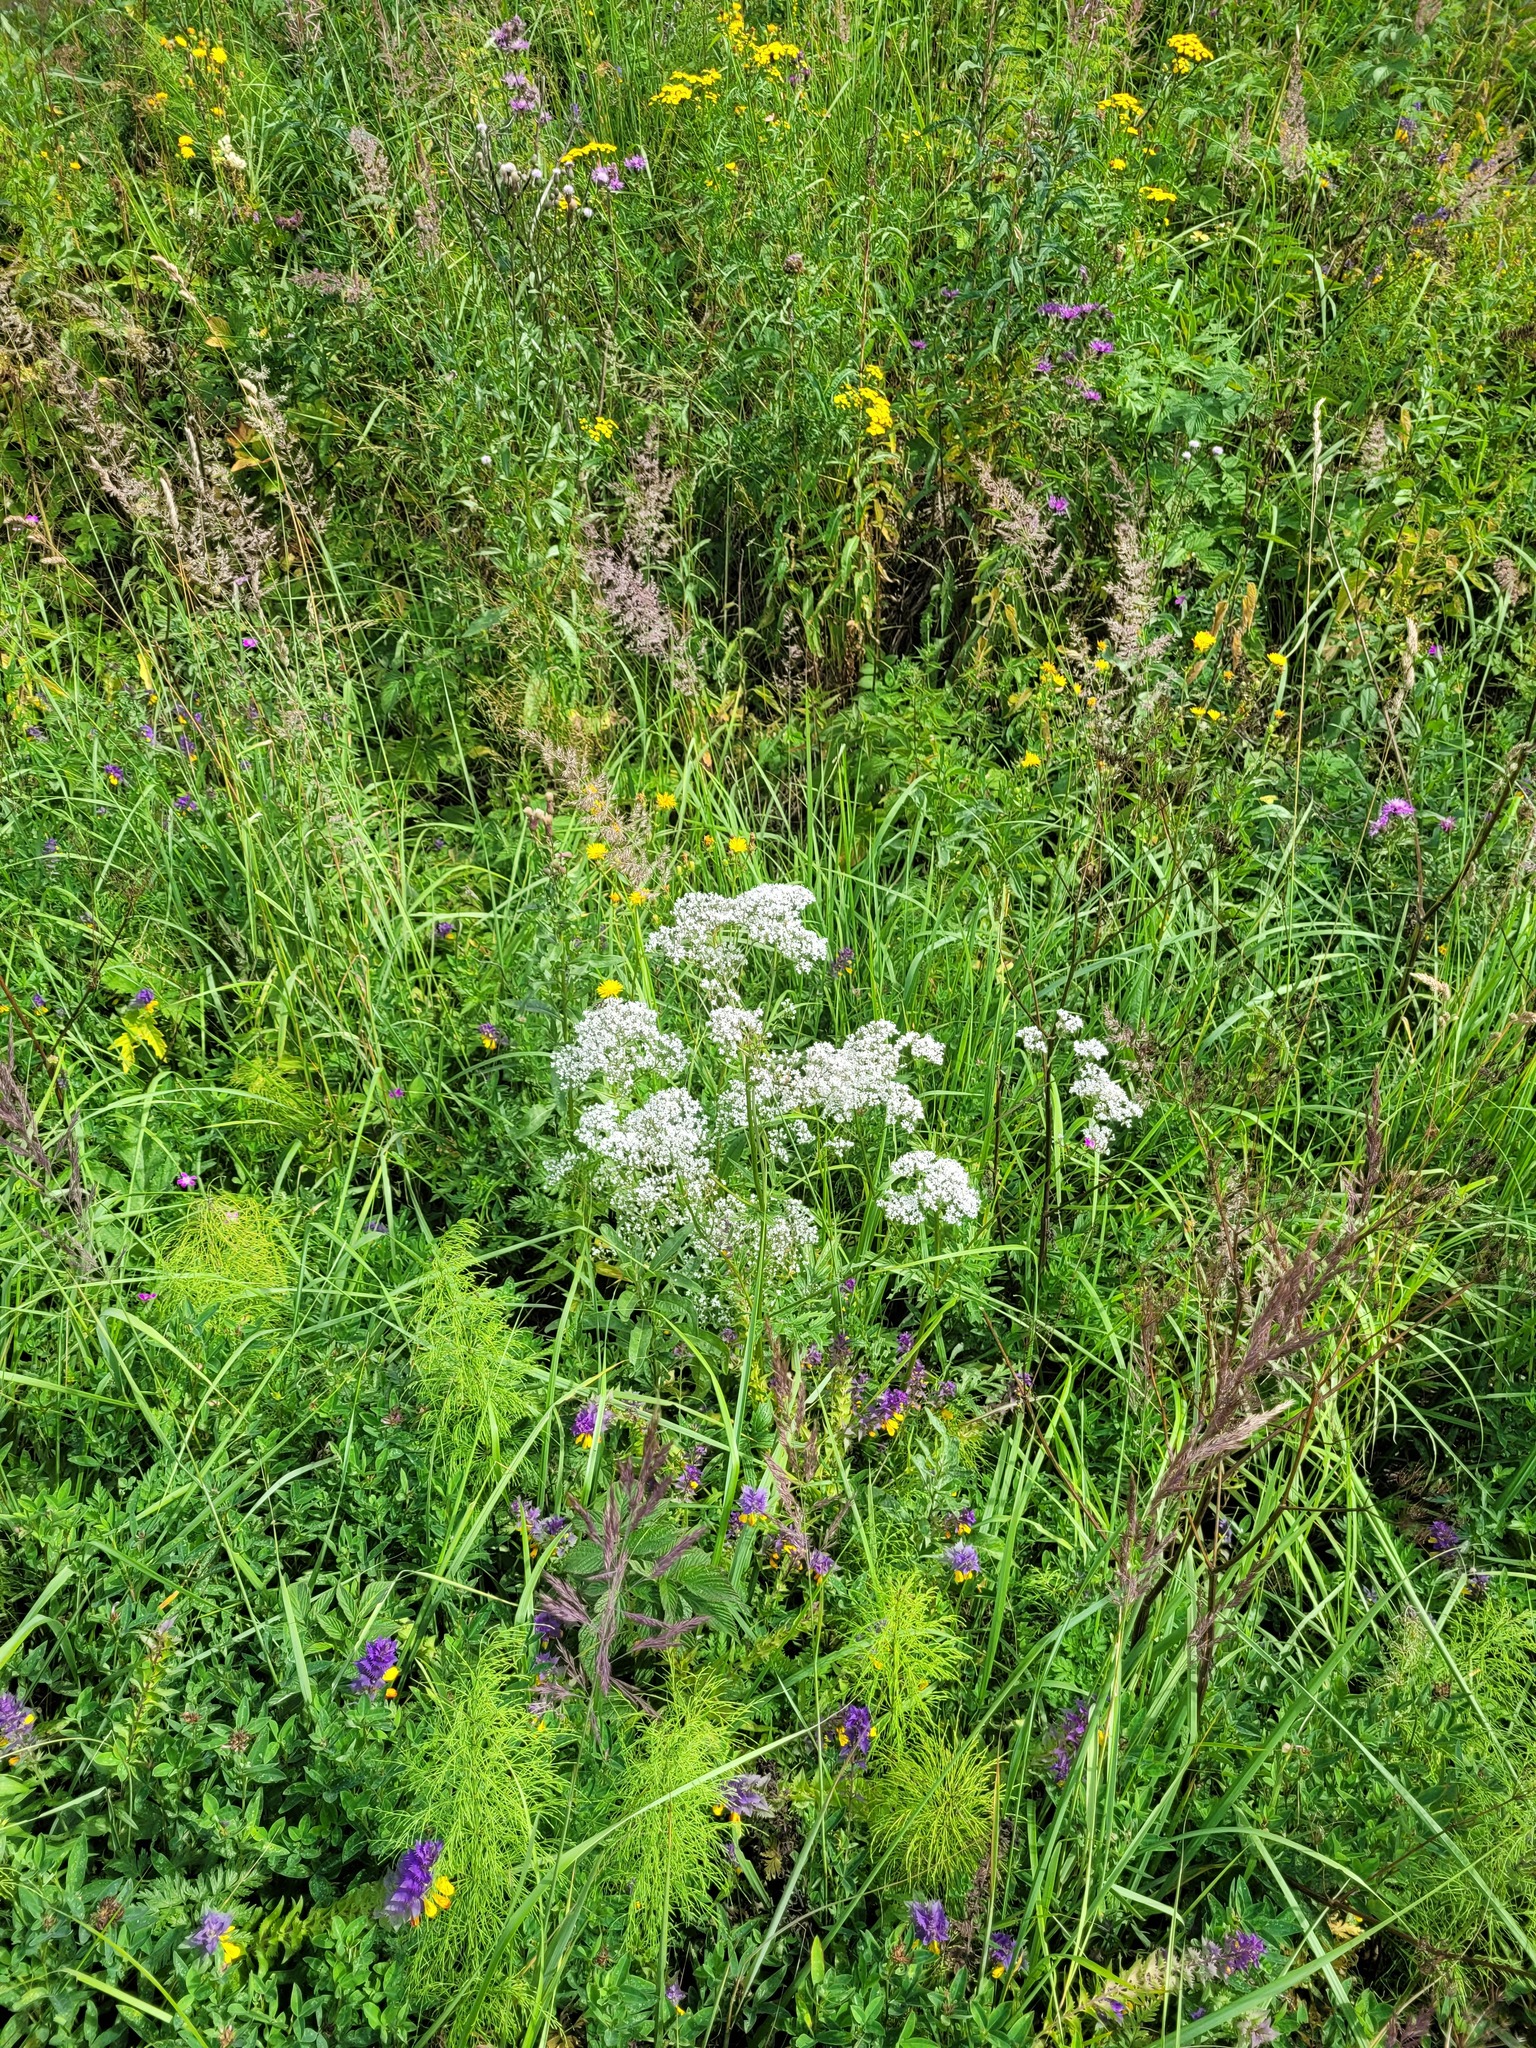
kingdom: Plantae
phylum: Tracheophyta
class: Magnoliopsida
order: Dipsacales
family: Caprifoliaceae
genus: Valeriana
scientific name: Valeriana officinalis
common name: Common valerian
